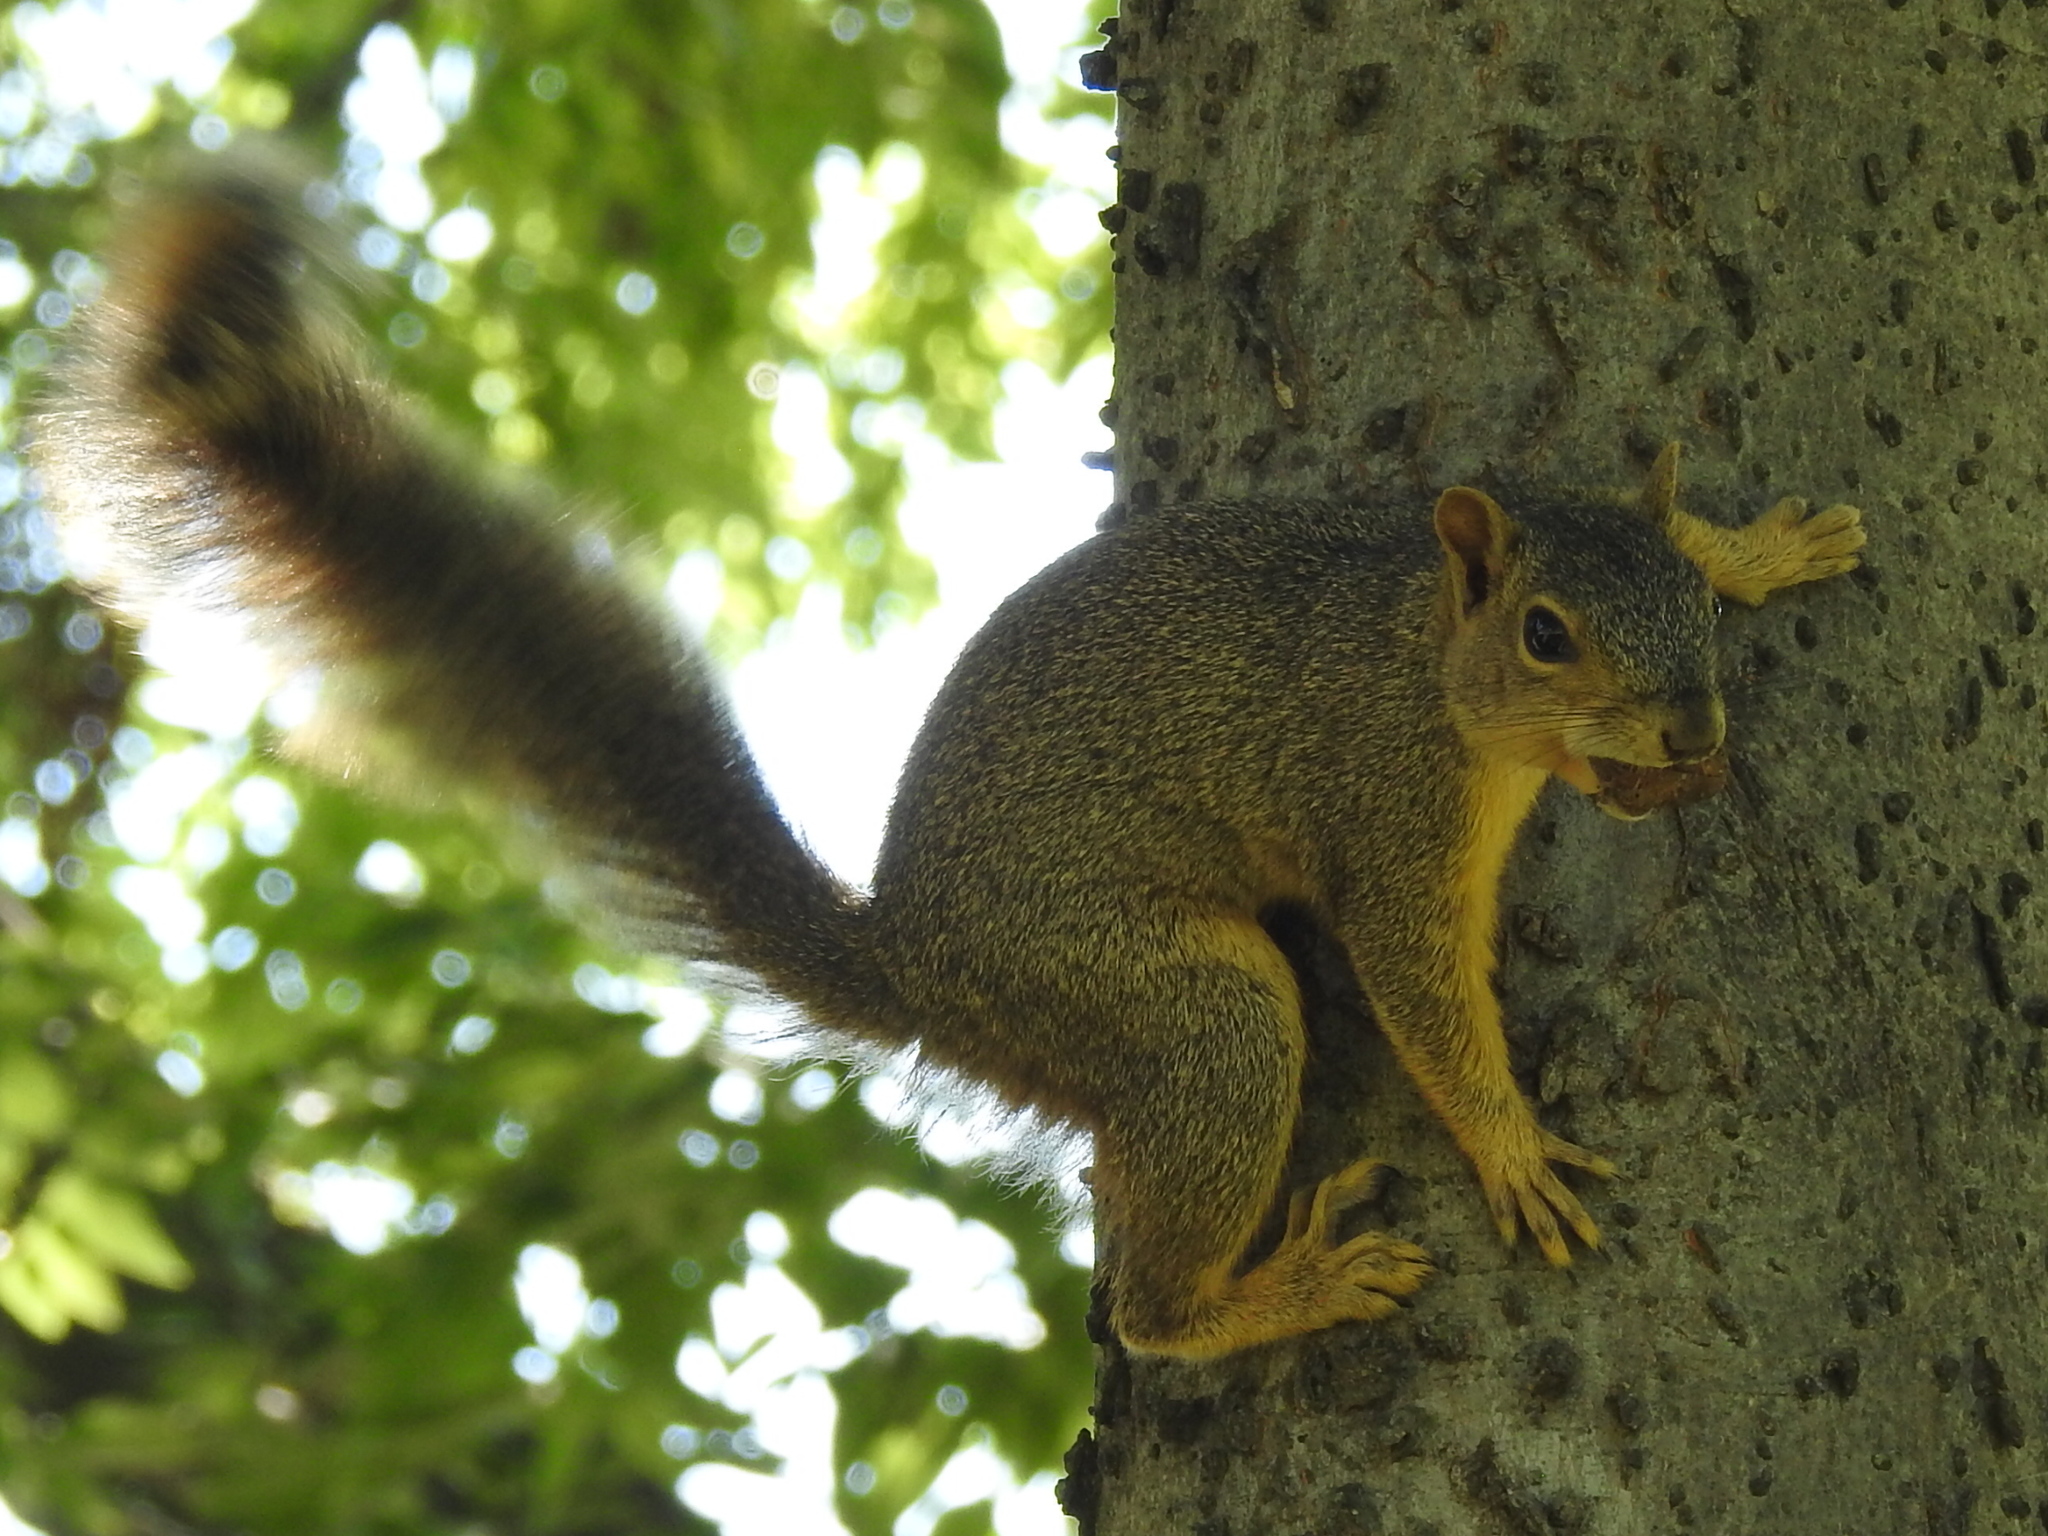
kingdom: Animalia
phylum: Chordata
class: Mammalia
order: Rodentia
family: Sciuridae
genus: Sciurus
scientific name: Sciurus niger
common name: Fox squirrel
